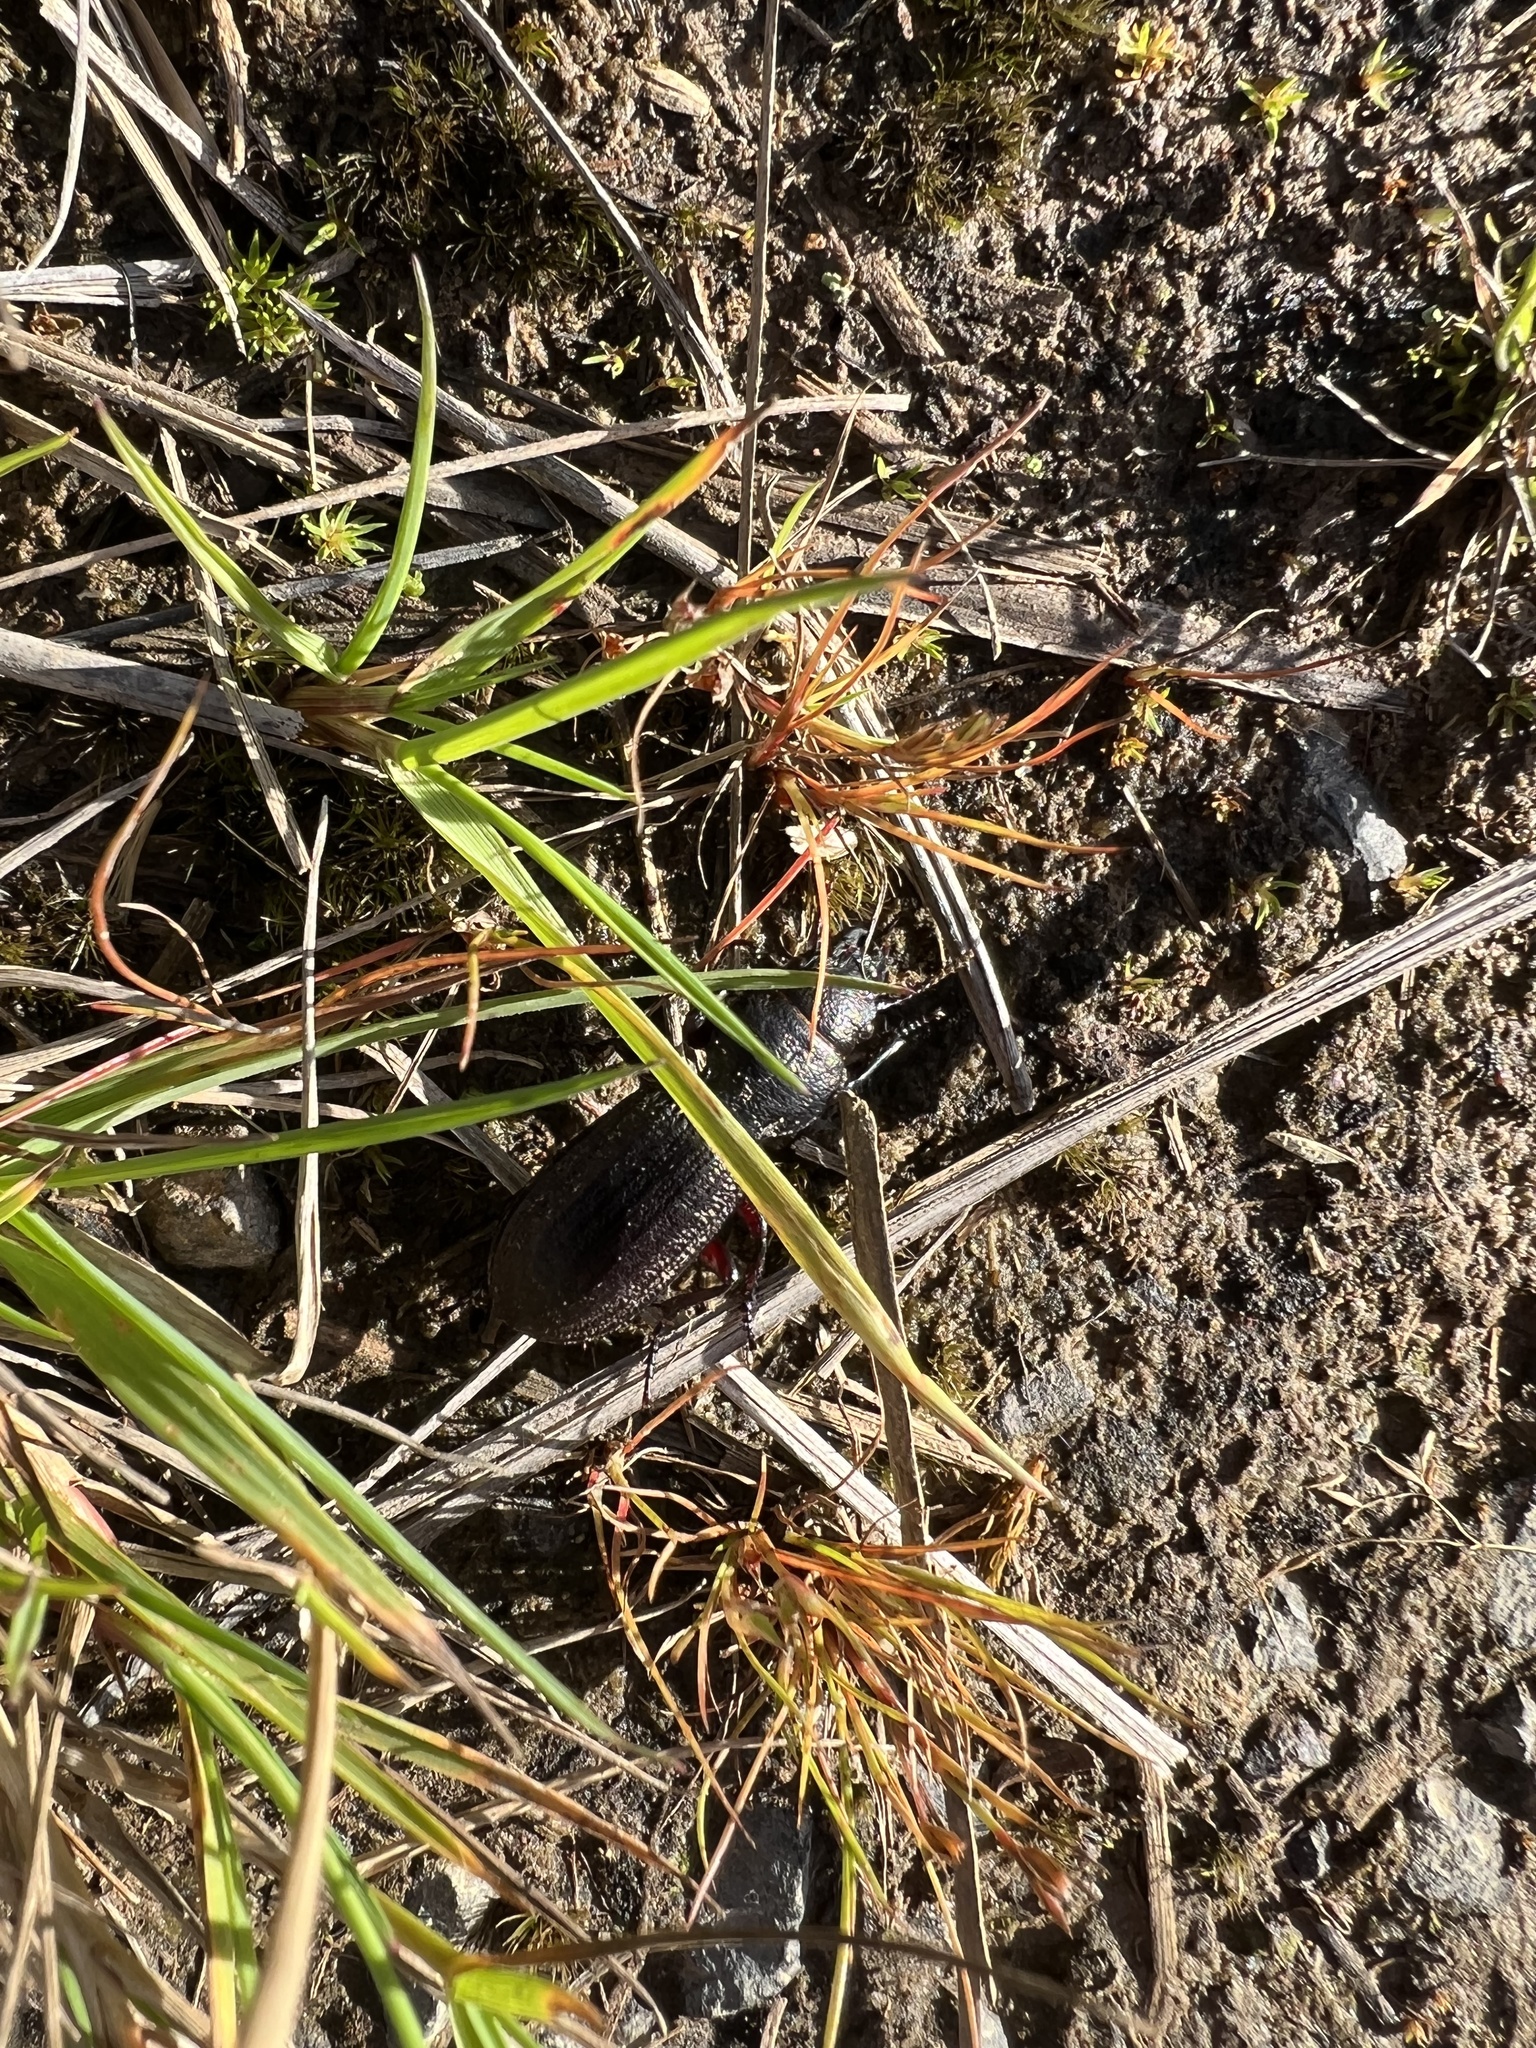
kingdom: Animalia
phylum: Arthropoda
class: Insecta
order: Coleoptera
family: Carabidae
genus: Mecodema
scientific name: Mecodema sculpturatum
